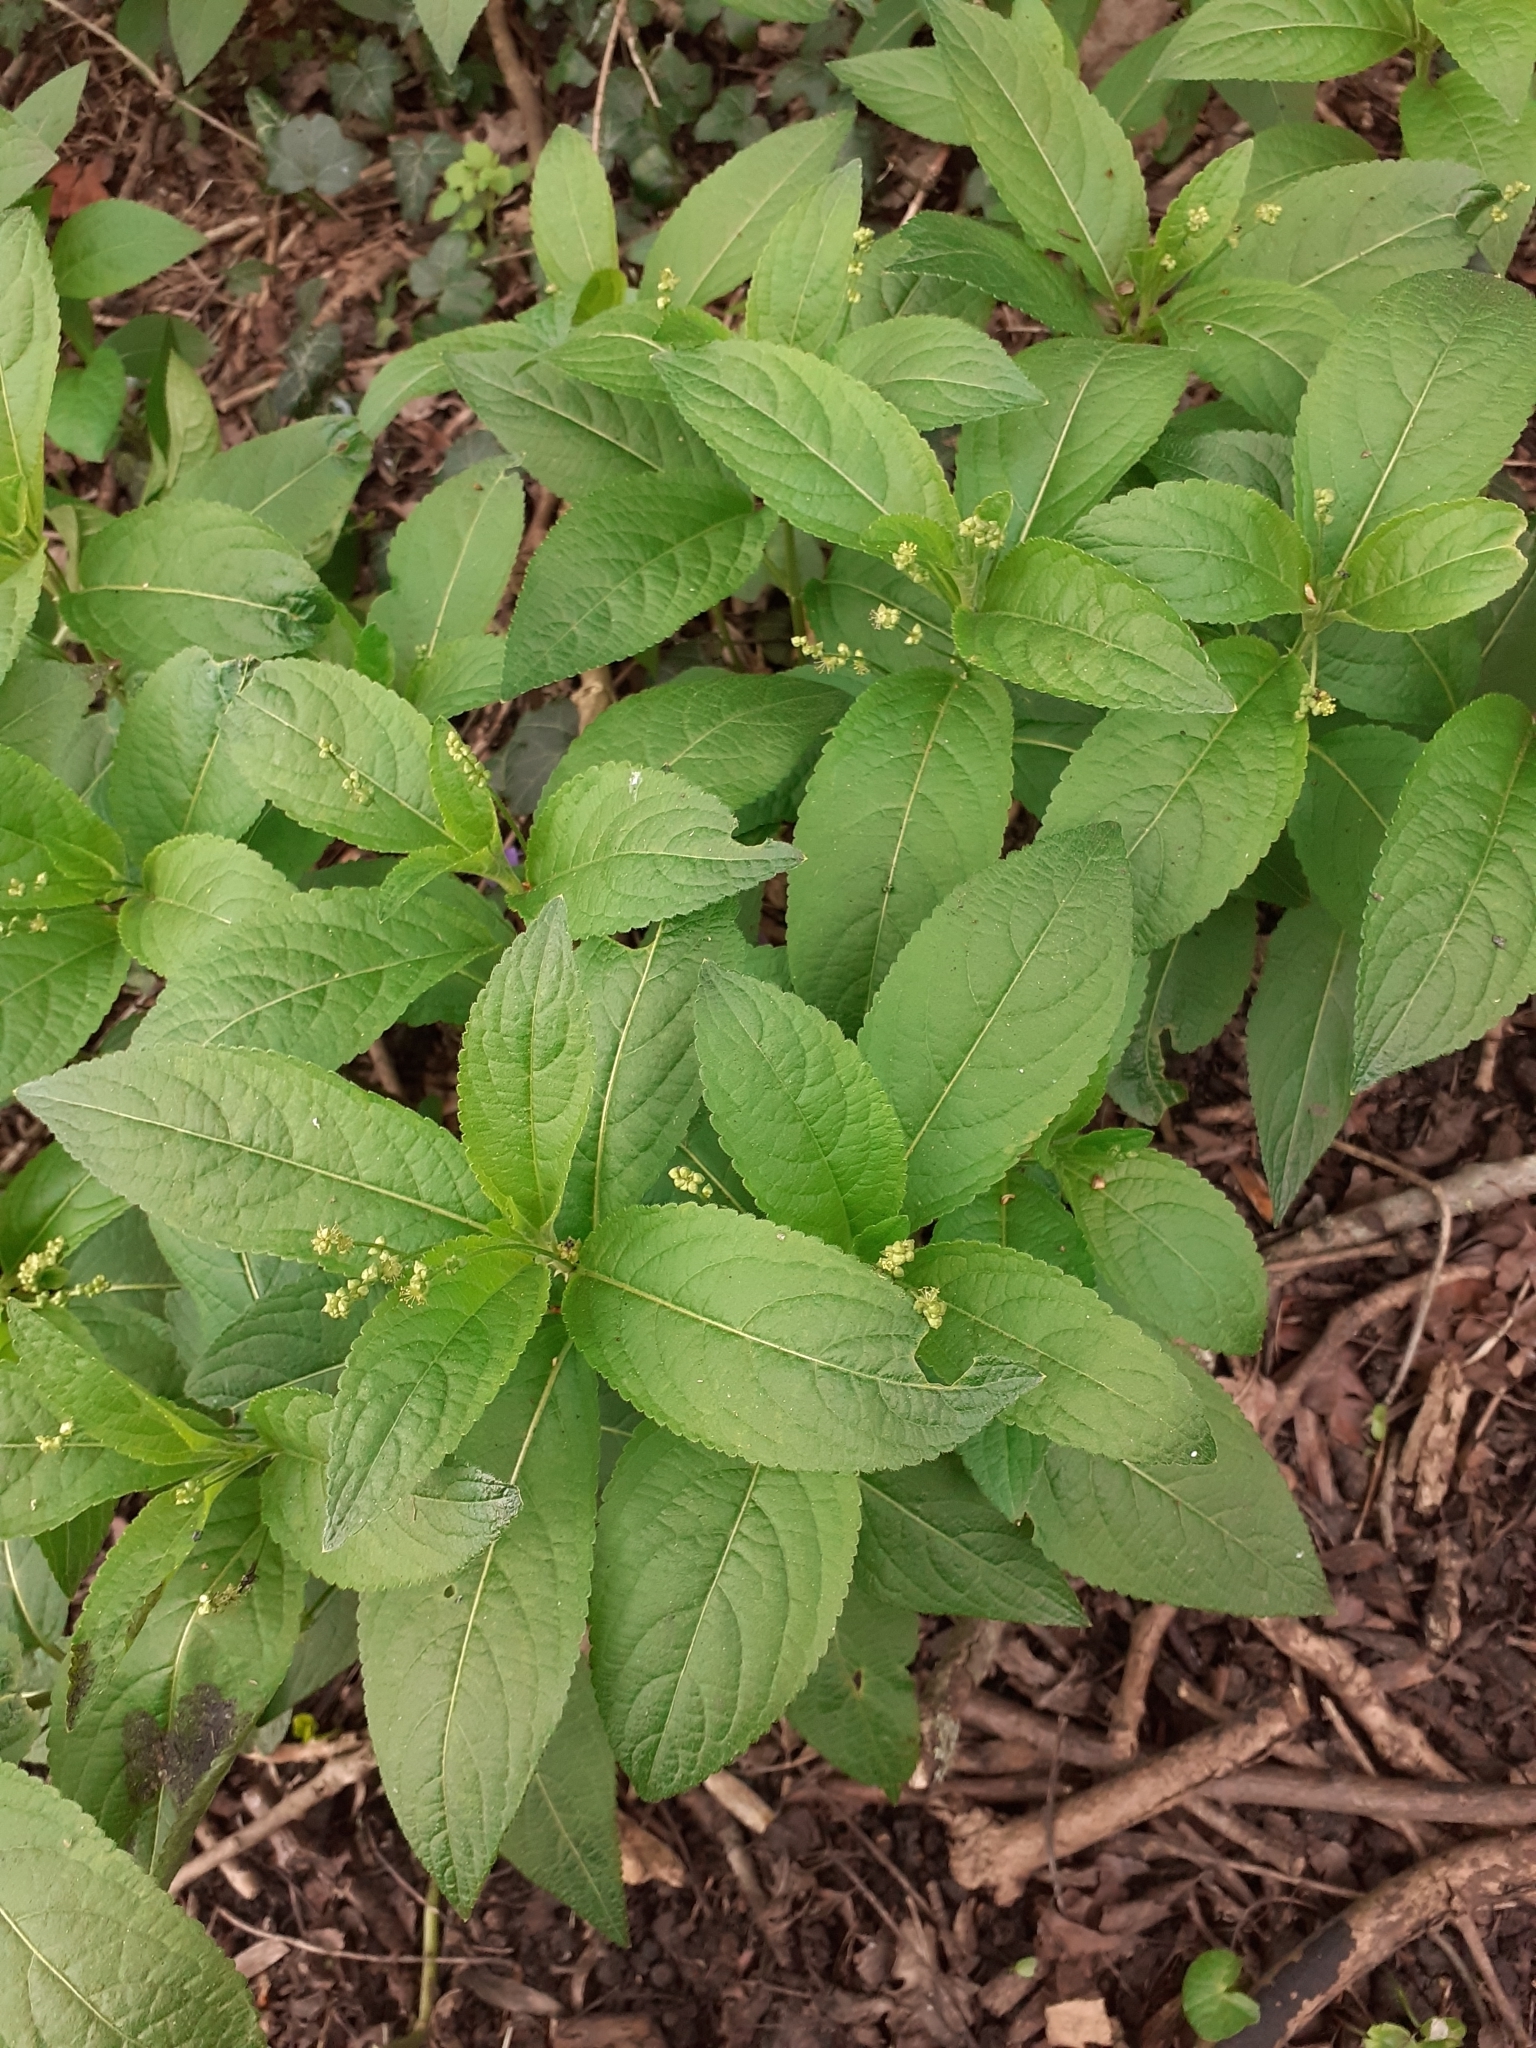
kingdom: Plantae
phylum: Tracheophyta
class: Magnoliopsida
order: Malpighiales
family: Euphorbiaceae
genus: Mercurialis
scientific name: Mercurialis perennis
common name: Dog mercury
